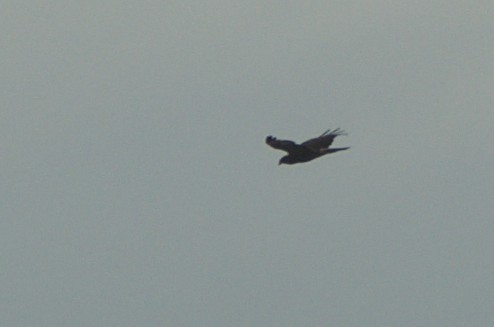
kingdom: Animalia
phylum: Chordata
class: Aves
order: Accipitriformes
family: Accipitridae
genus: Circus
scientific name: Circus approximans
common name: Swamp harrier
